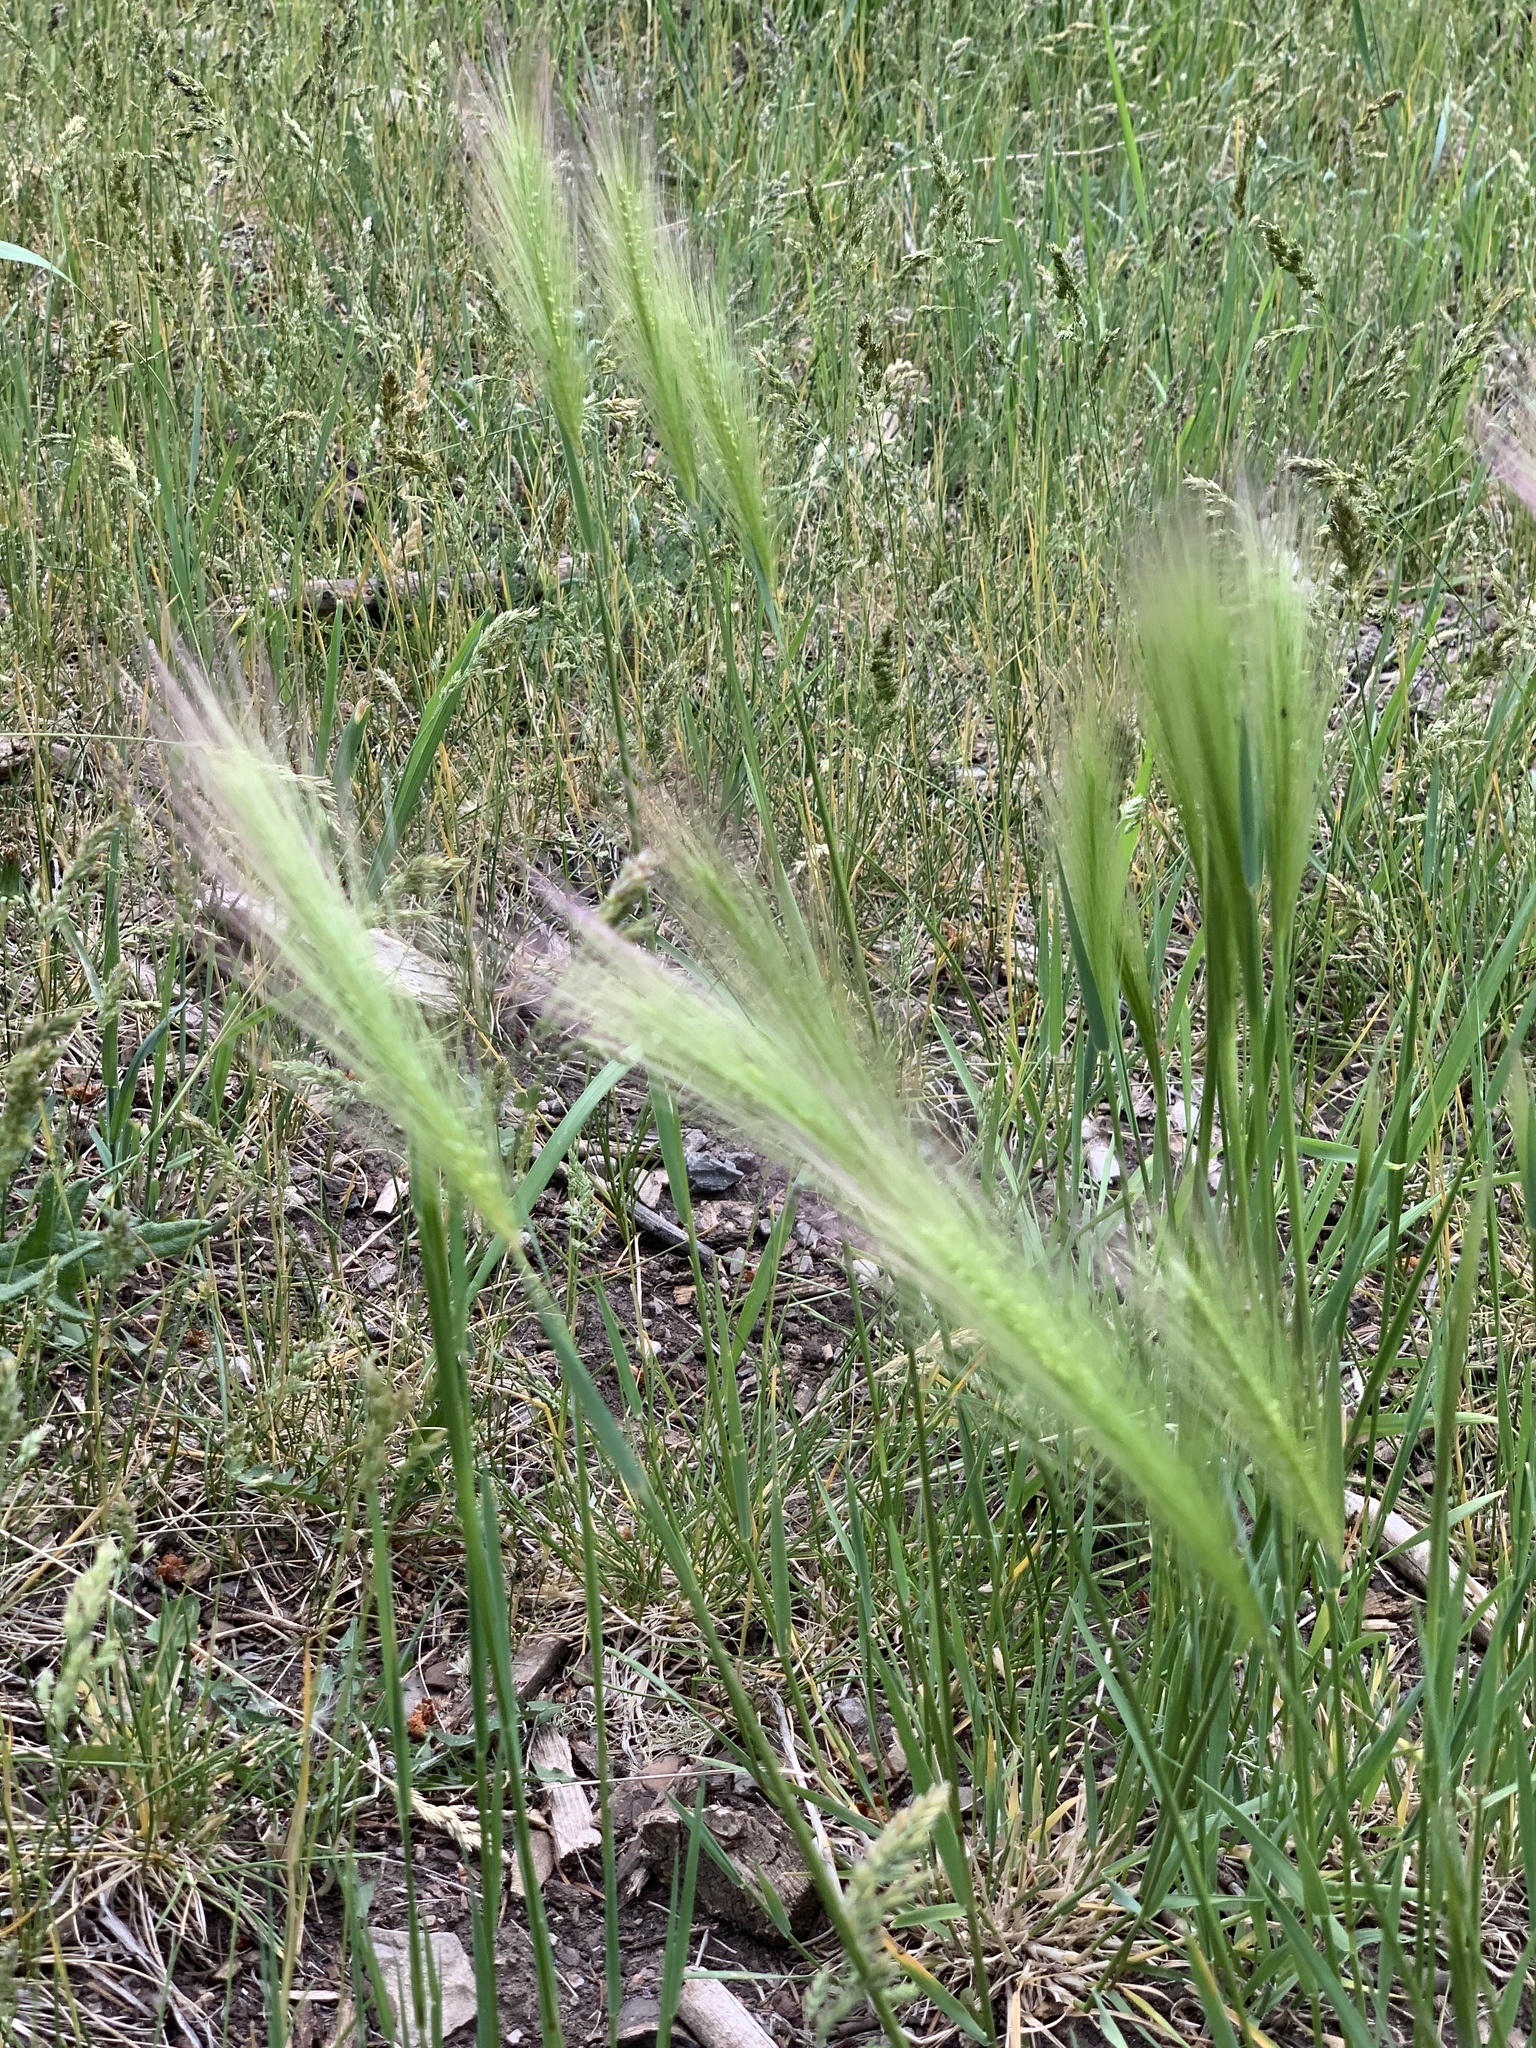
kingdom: Plantae
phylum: Tracheophyta
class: Liliopsida
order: Poales
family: Poaceae
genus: Hordeum
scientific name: Hordeum jubatum
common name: Foxtail barley
